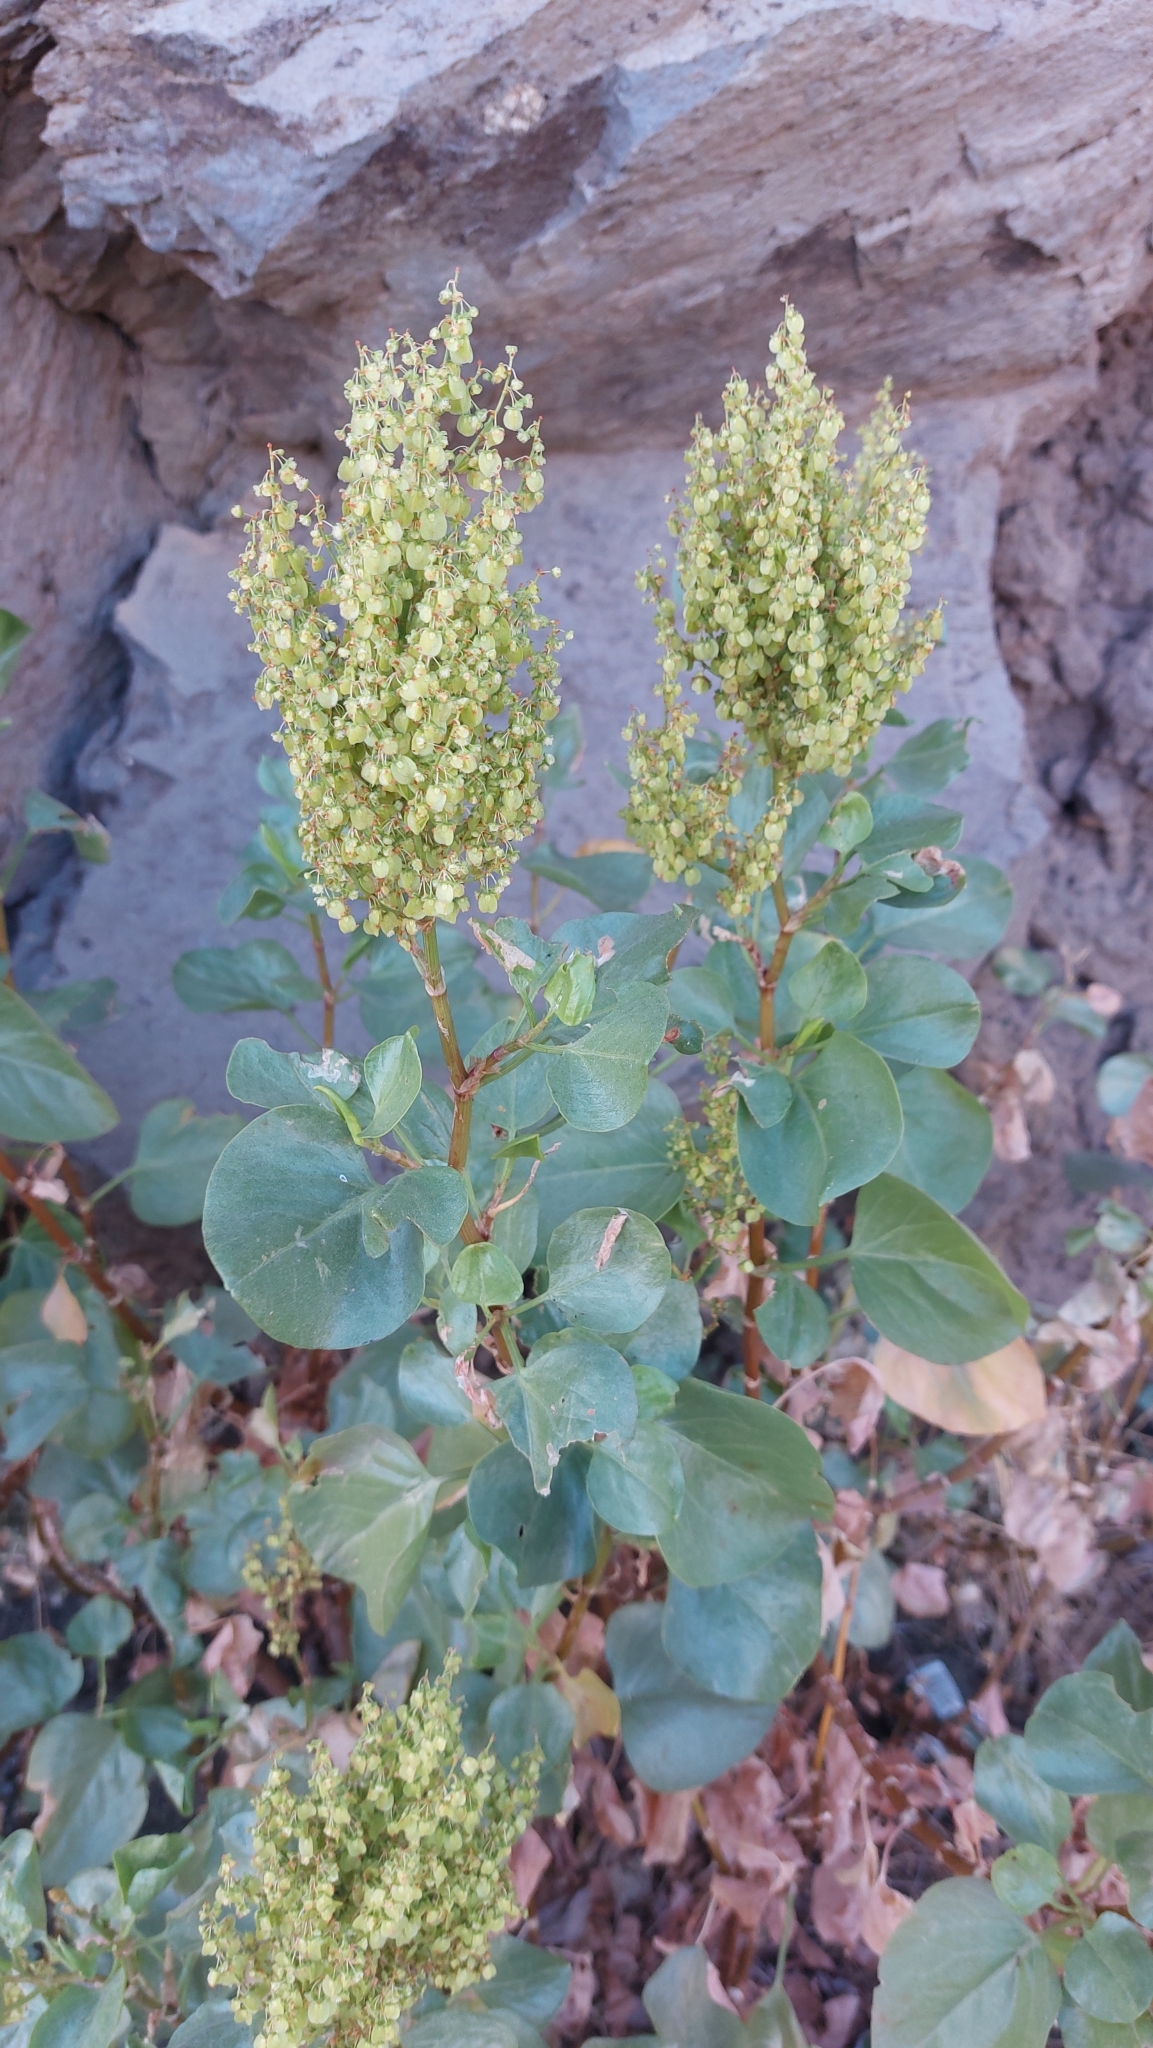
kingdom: Plantae
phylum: Tracheophyta
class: Magnoliopsida
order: Caryophyllales
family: Polygonaceae
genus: Rumex
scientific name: Rumex lunaria
